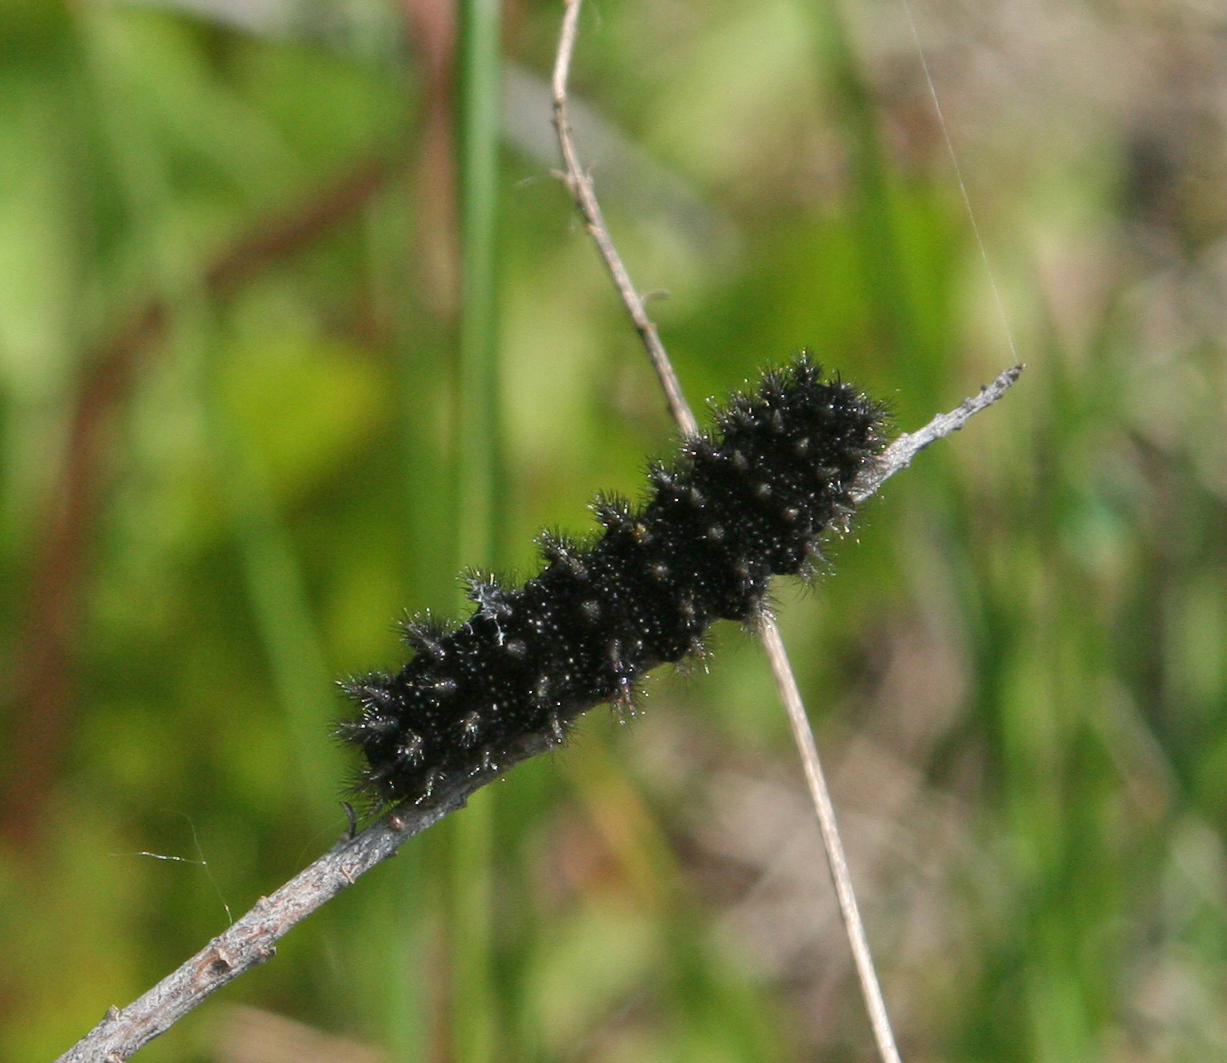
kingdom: Animalia
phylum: Arthropoda
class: Insecta
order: Lepidoptera
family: Nymphalidae
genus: Melitaea
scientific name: Melitaea cinxia
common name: Glanville fritillary
